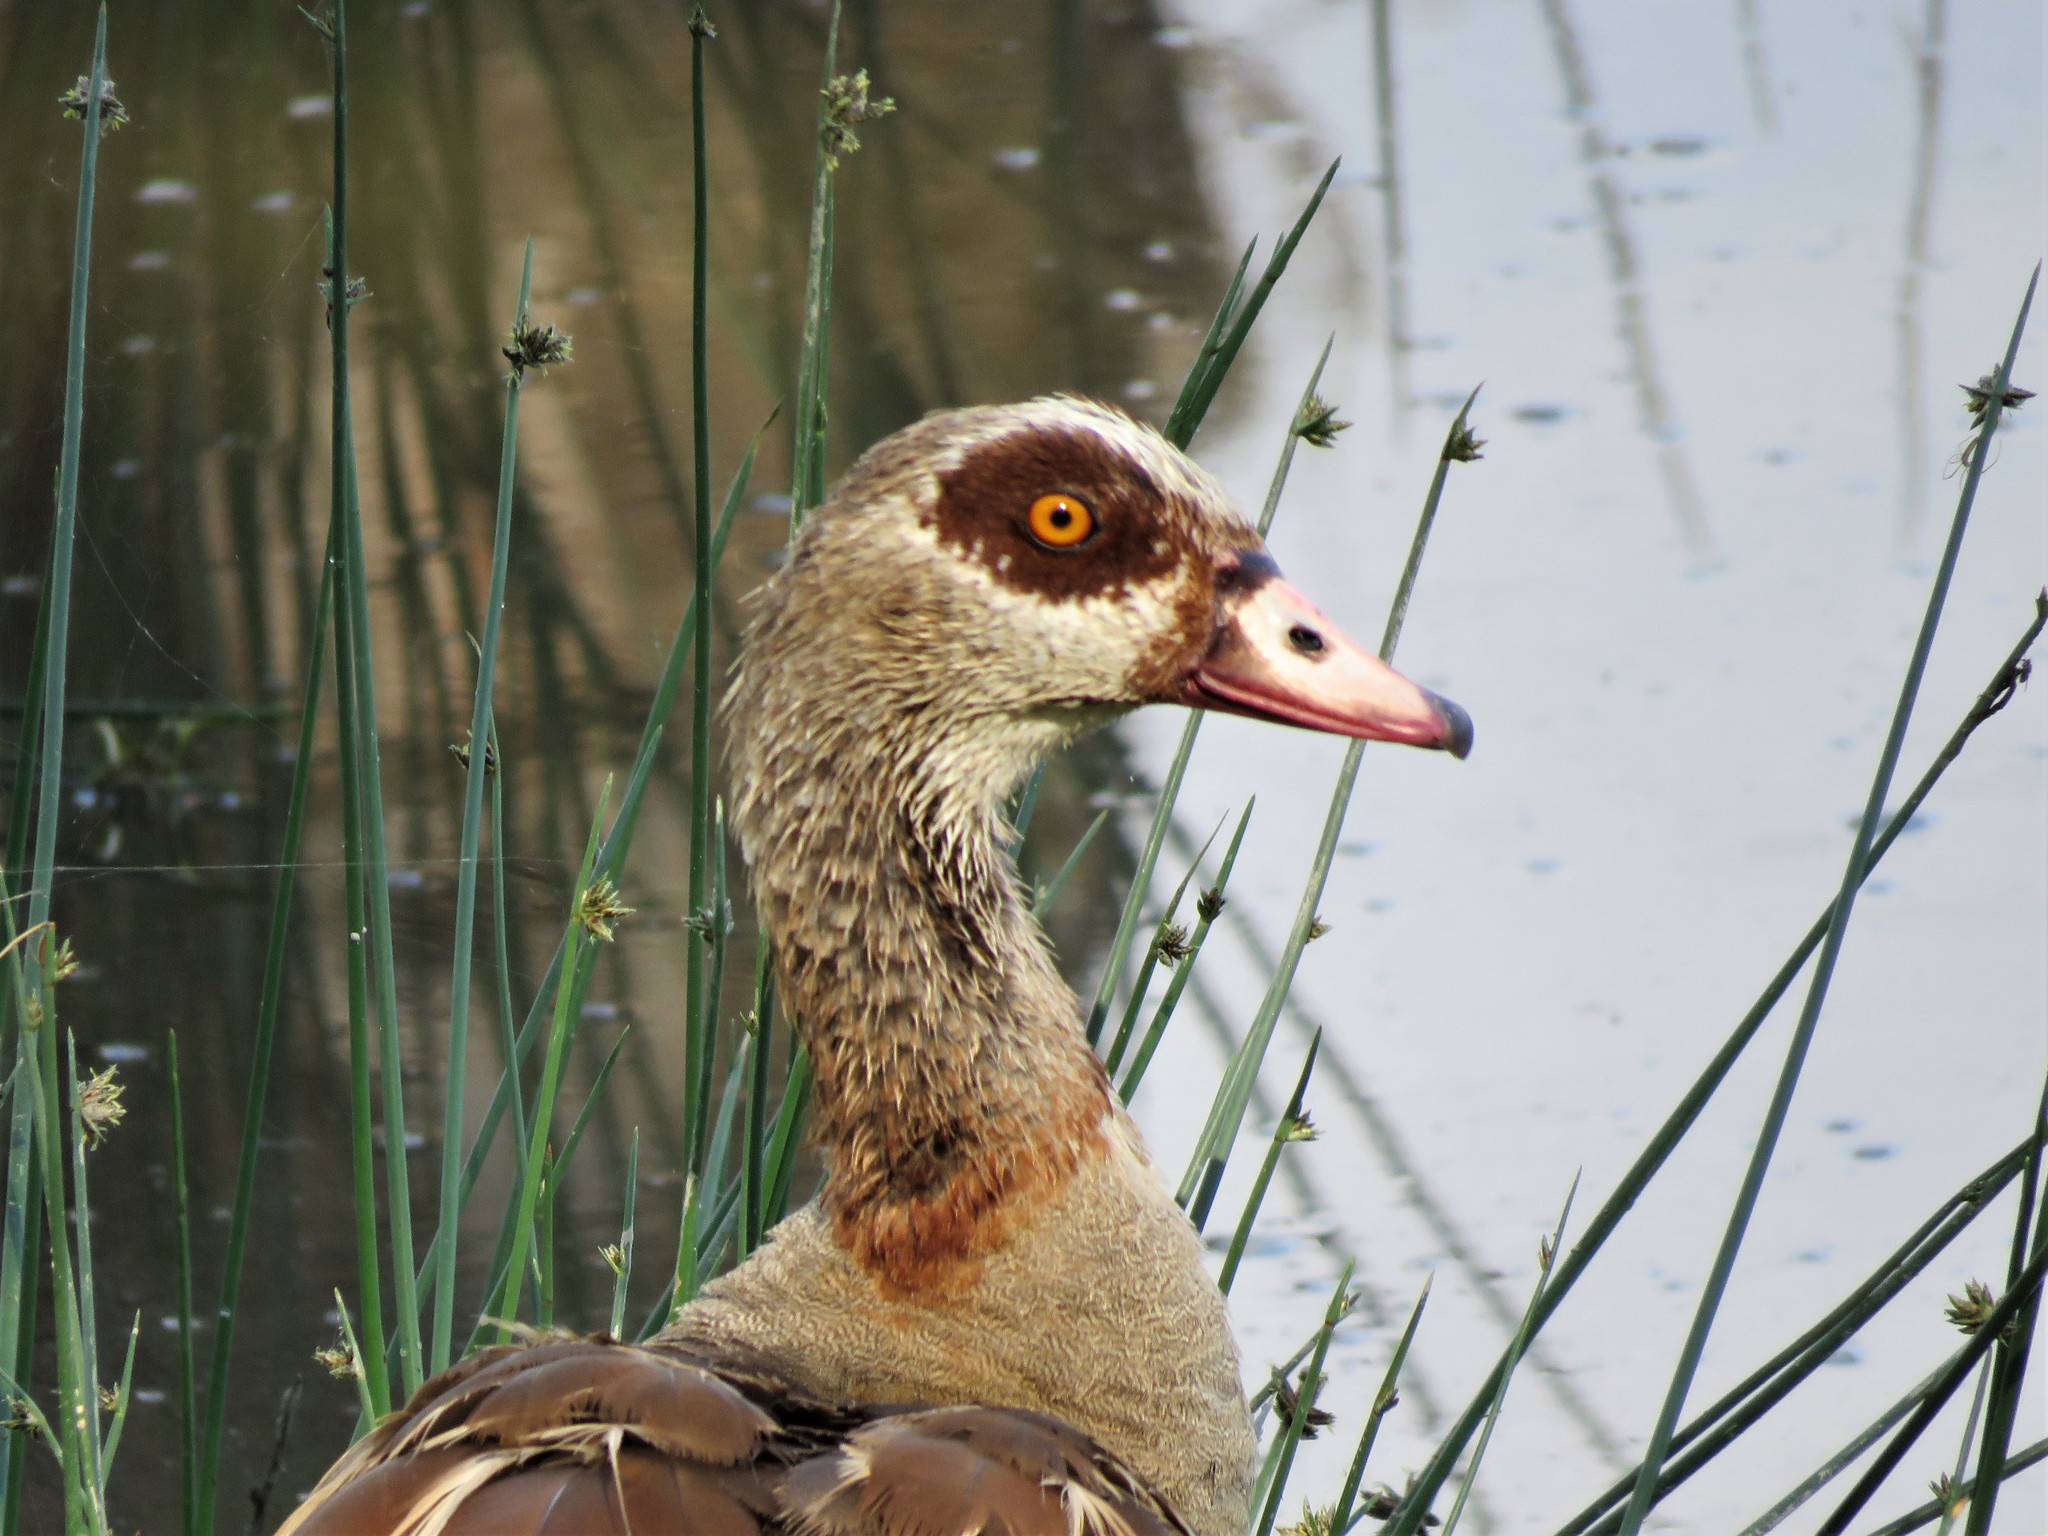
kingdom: Animalia
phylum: Chordata
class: Aves
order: Anseriformes
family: Anatidae
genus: Alopochen
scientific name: Alopochen aegyptiaca
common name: Egyptian goose
